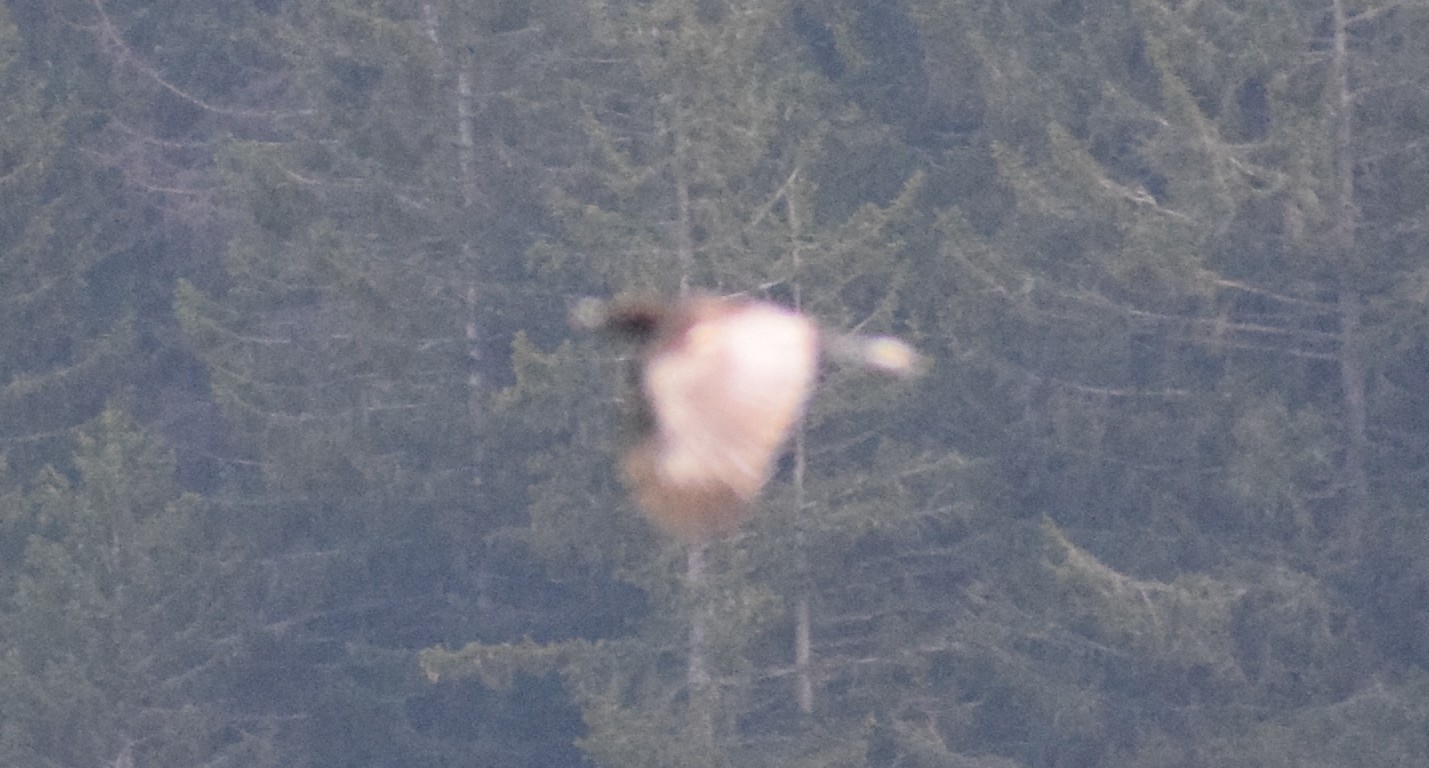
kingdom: Animalia
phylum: Chordata
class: Aves
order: Passeriformes
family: Corvidae
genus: Corvus
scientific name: Corvus corone
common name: Carrion crow
